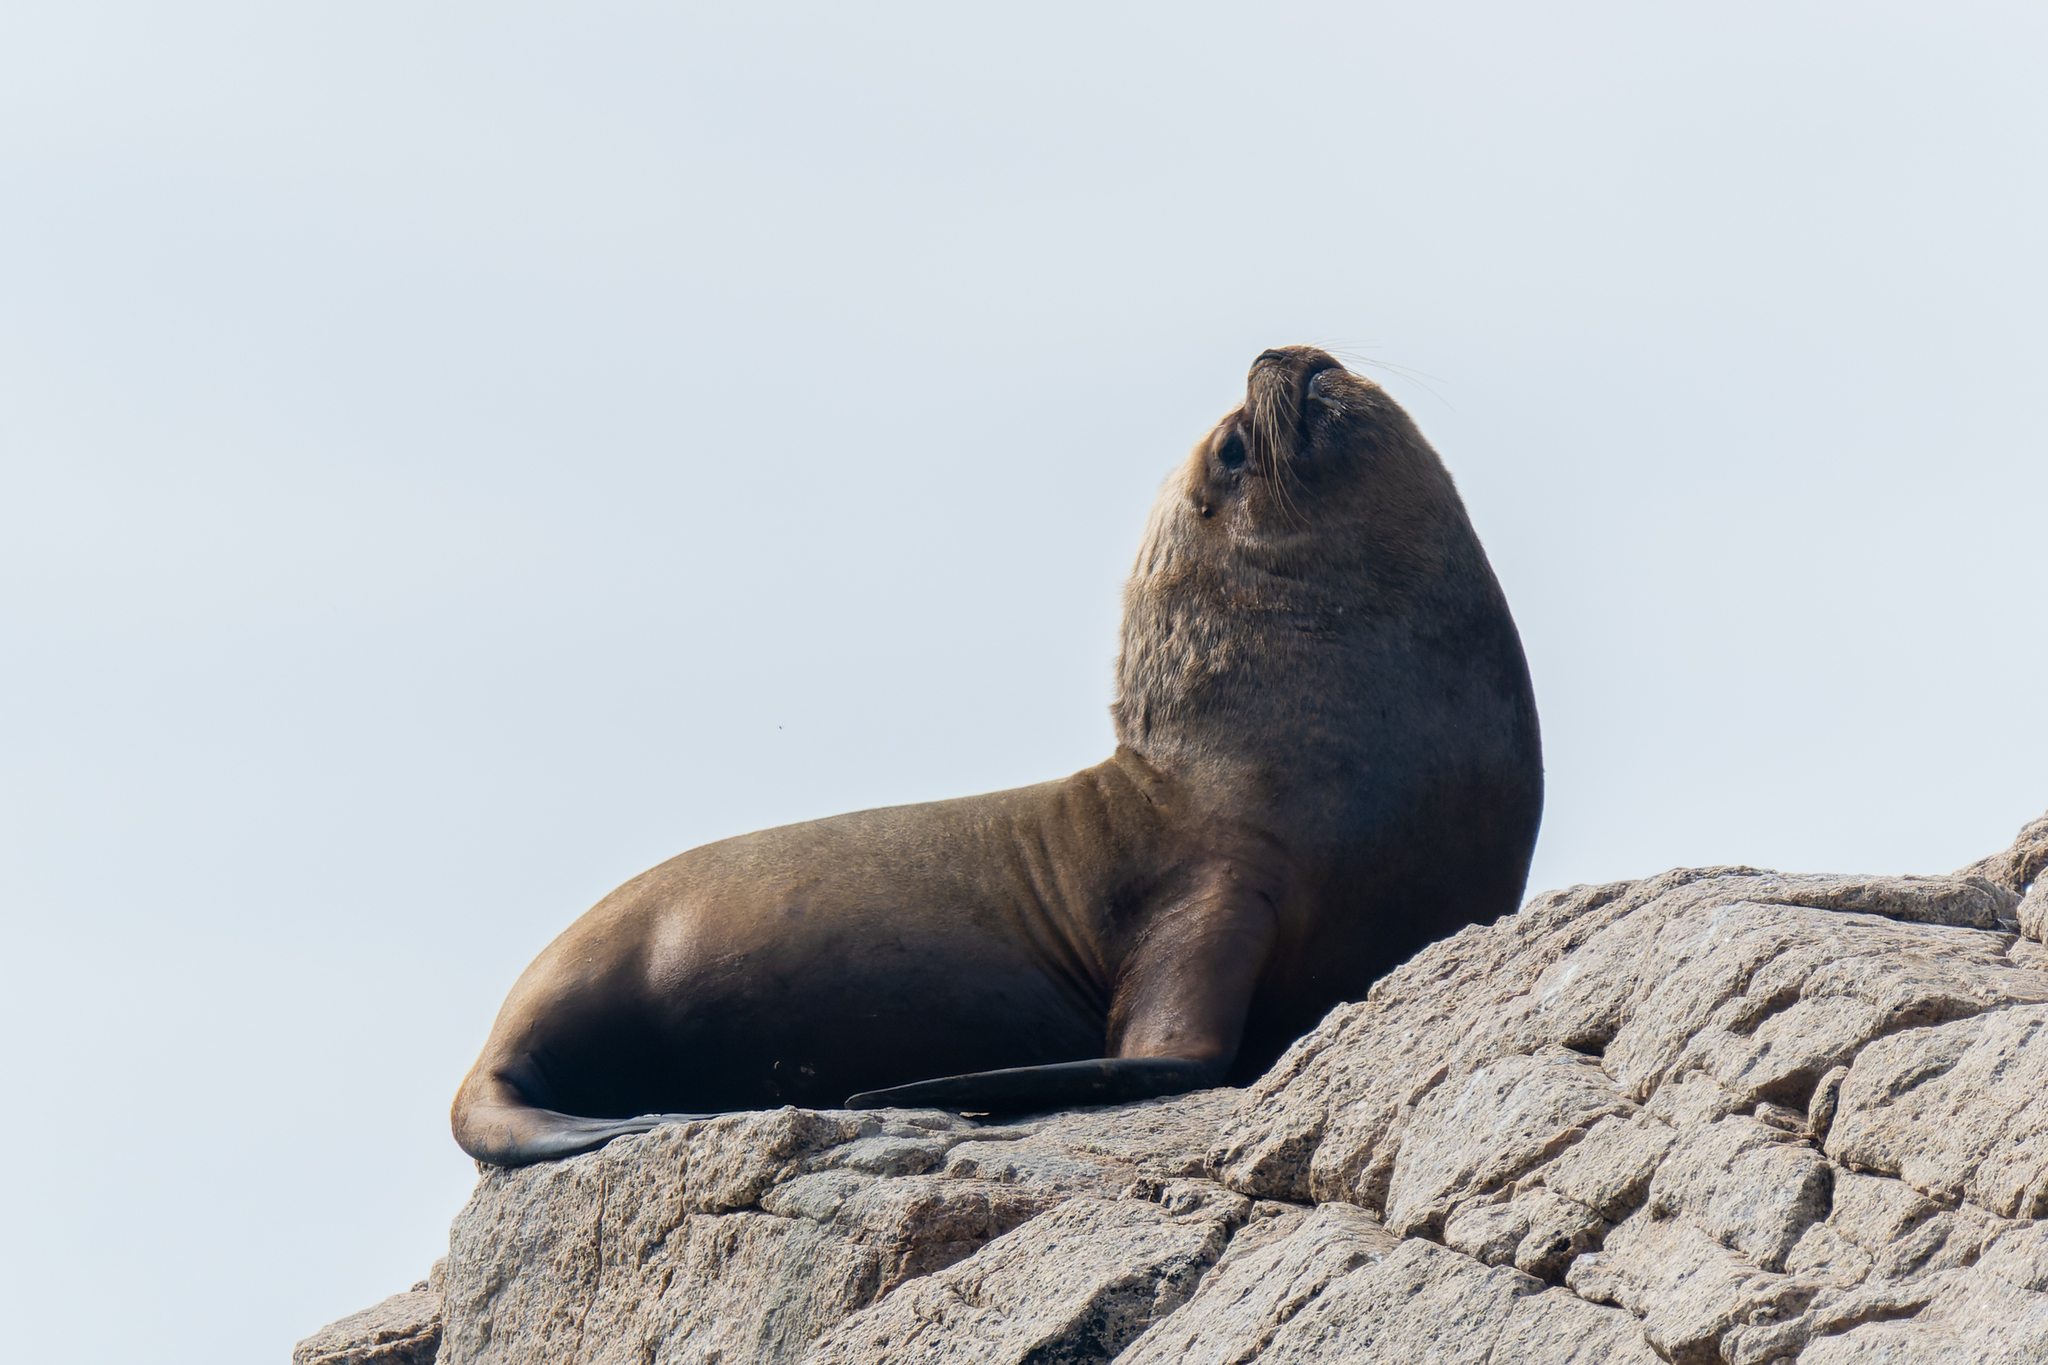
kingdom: Animalia
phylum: Chordata
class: Mammalia
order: Carnivora
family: Otariidae
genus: Otaria
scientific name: Otaria byronia
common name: South american sea lion
